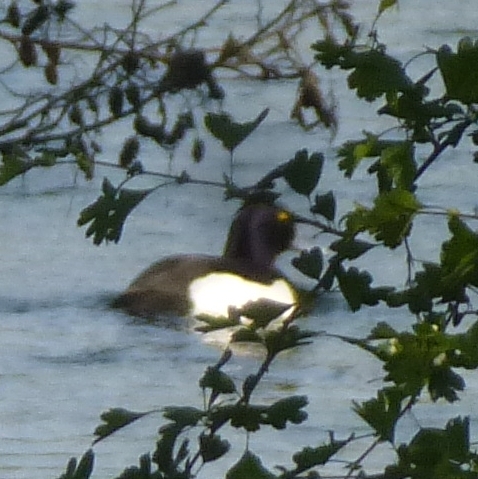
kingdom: Animalia
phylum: Chordata
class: Aves
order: Anseriformes
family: Anatidae
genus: Aythya
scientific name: Aythya fuligula
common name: Tufted duck
